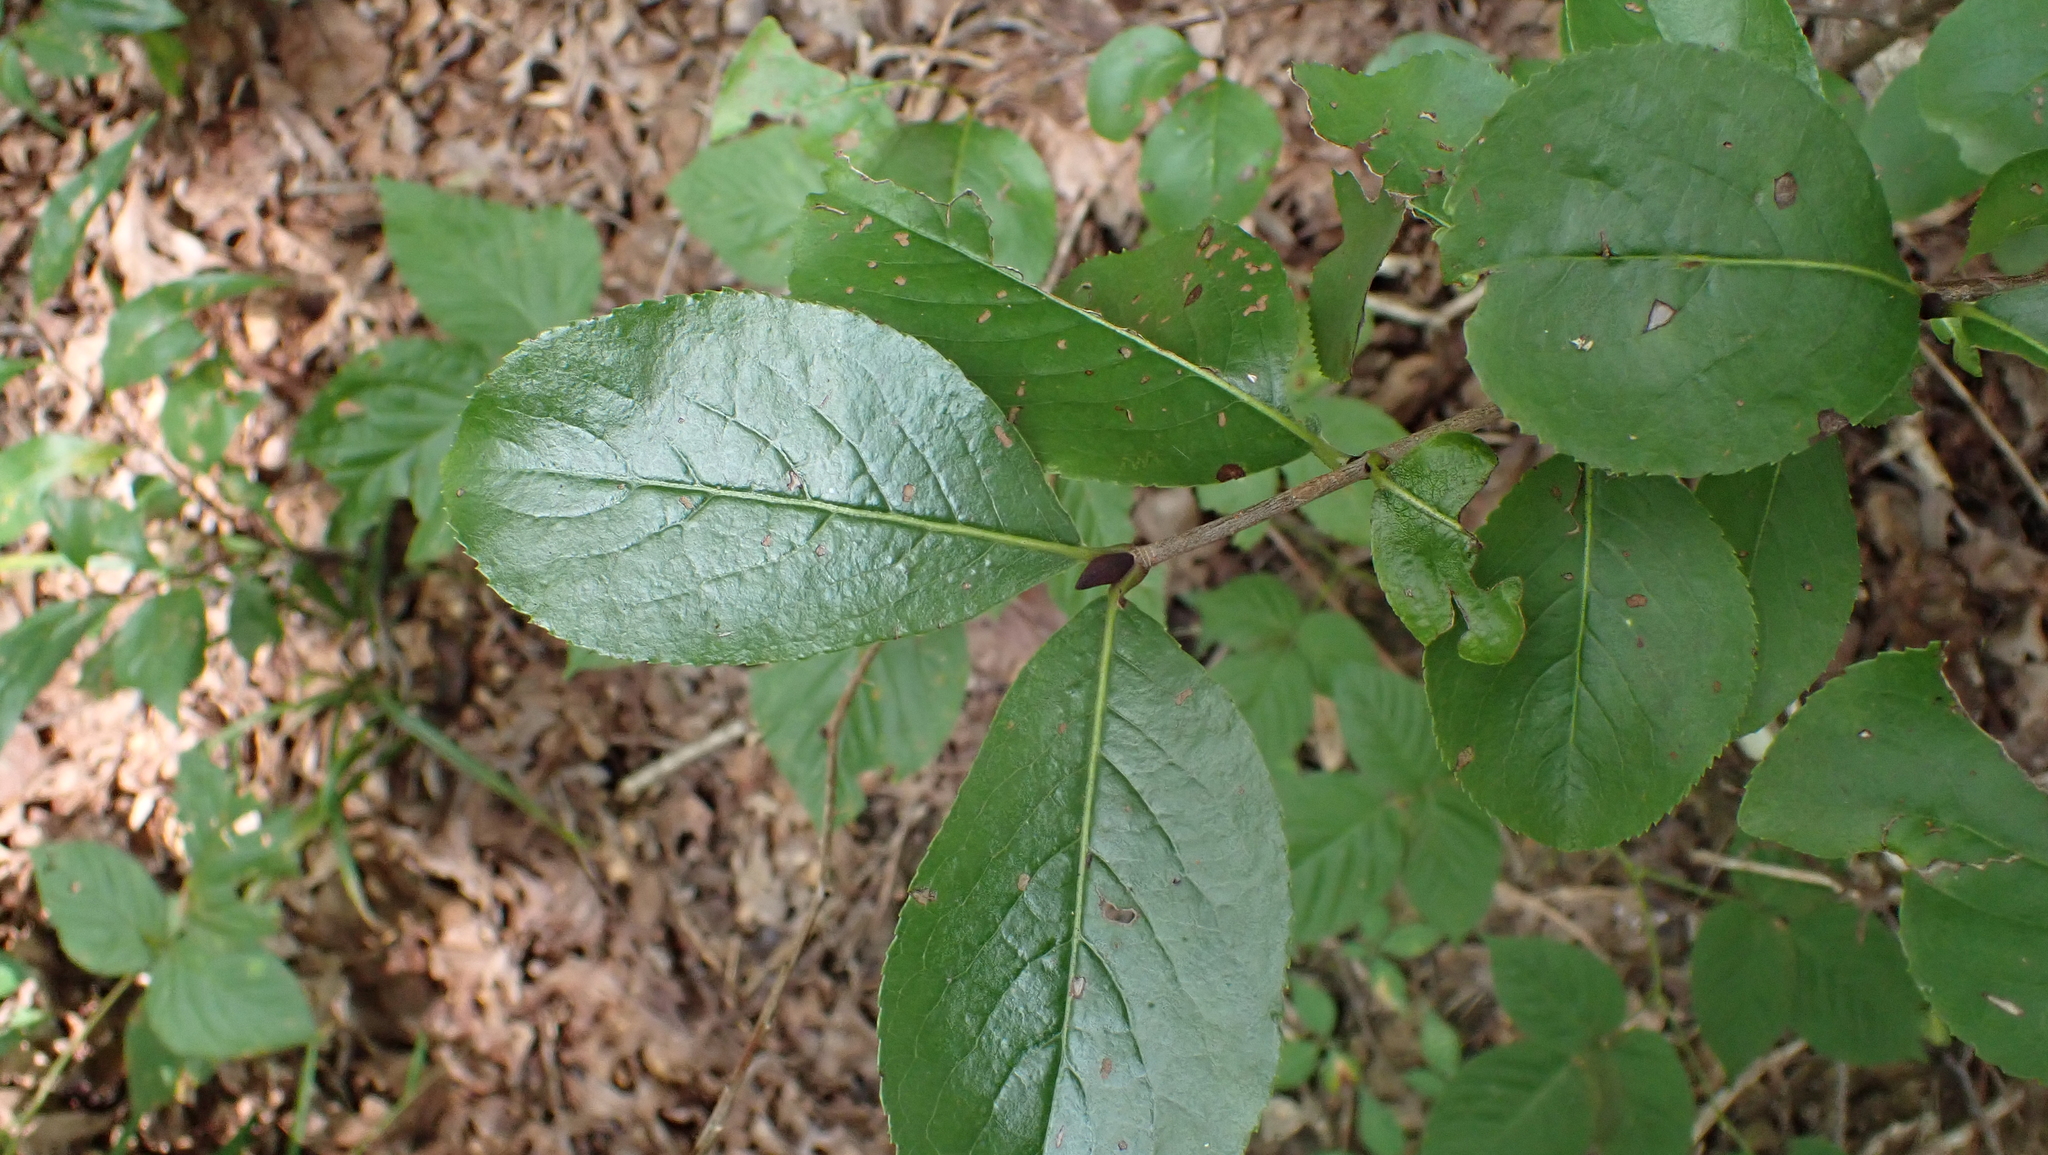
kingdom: Plantae
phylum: Tracheophyta
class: Magnoliopsida
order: Dipsacales
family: Viburnaceae
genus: Viburnum
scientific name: Viburnum rufidulum
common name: Blue haw
